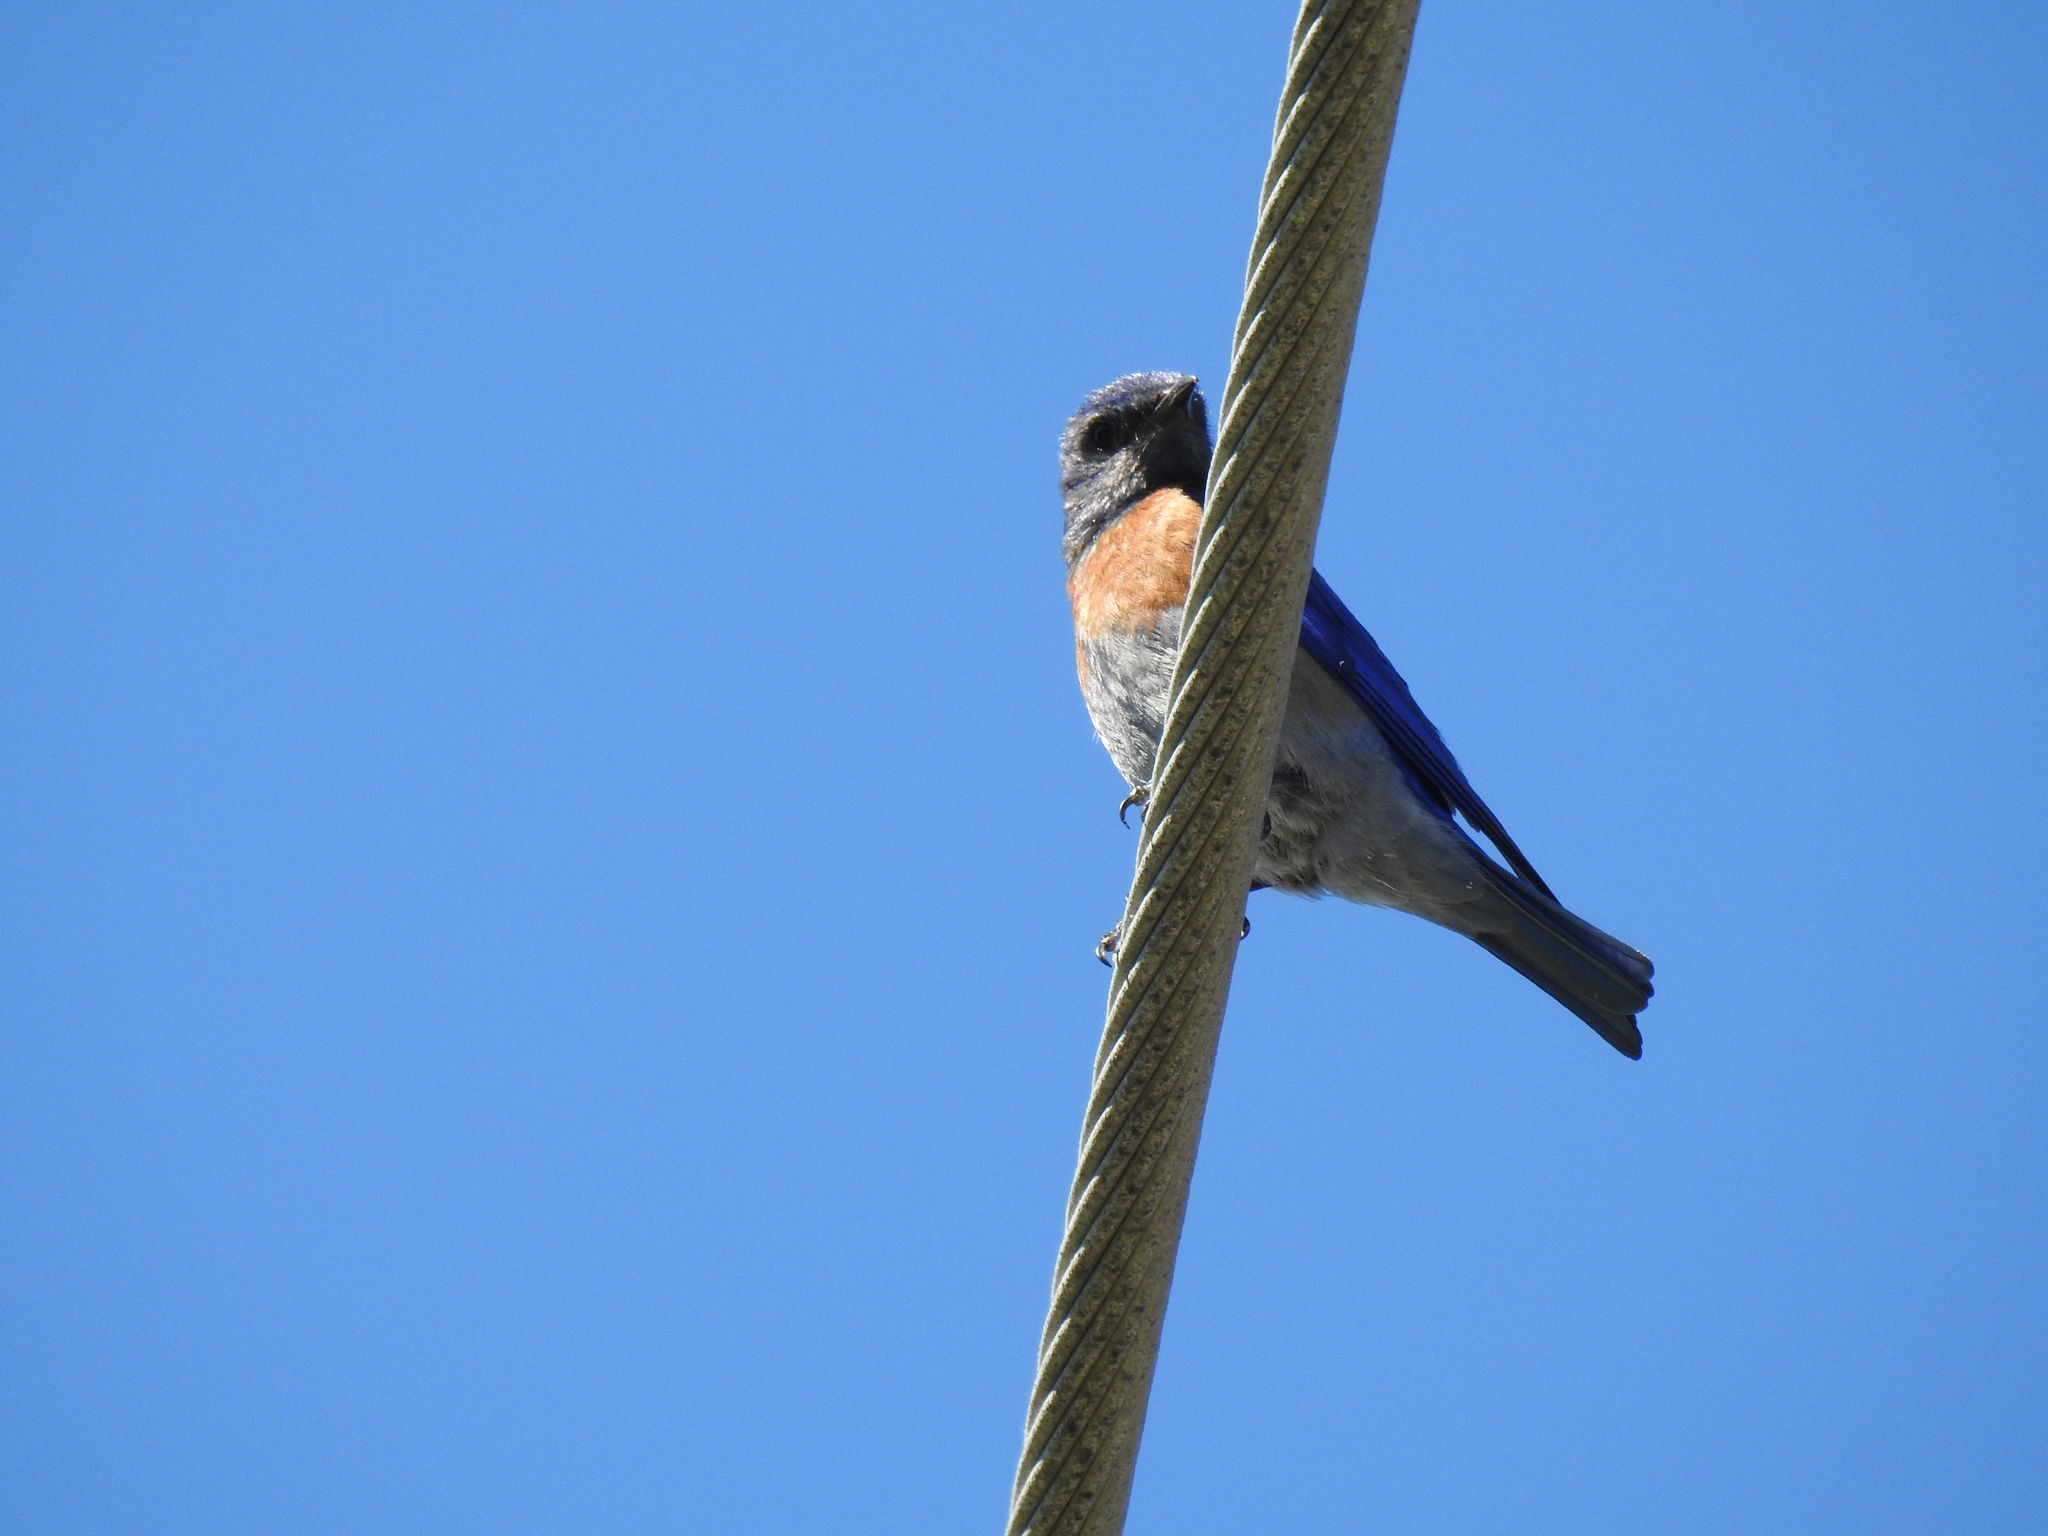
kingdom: Animalia
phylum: Chordata
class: Aves
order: Passeriformes
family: Turdidae
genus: Sialia
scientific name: Sialia mexicana
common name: Western bluebird
